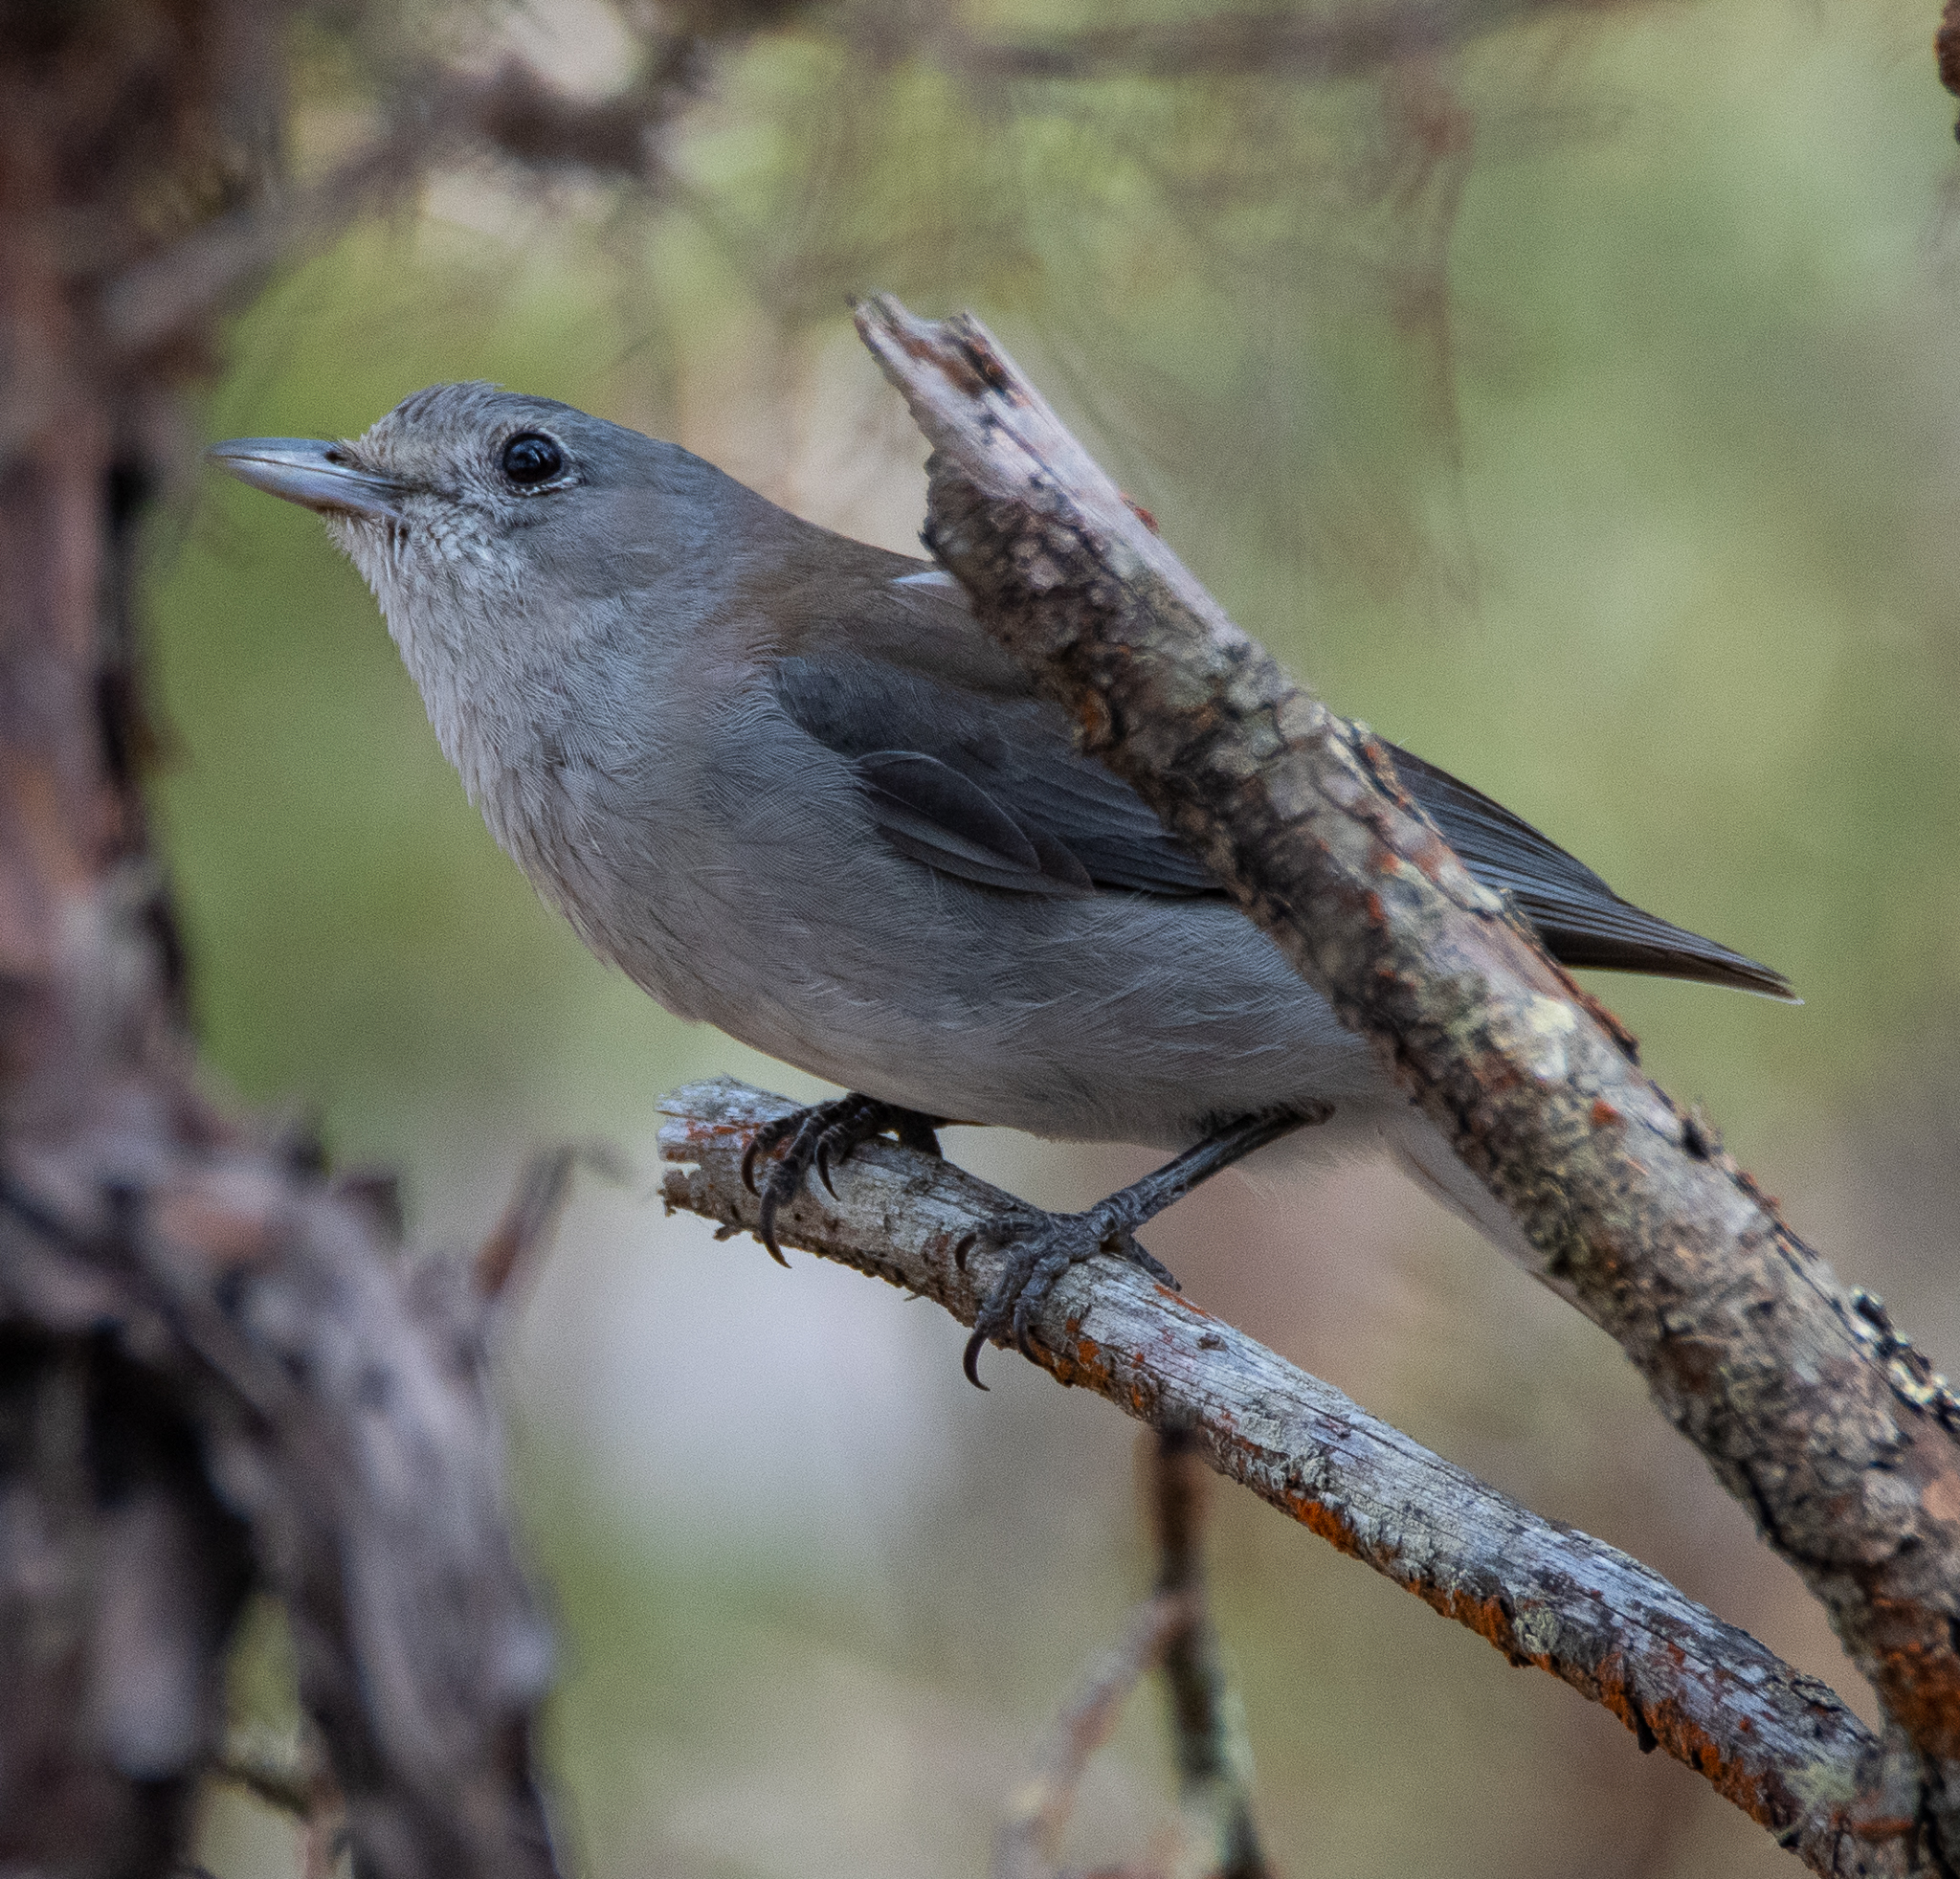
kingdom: Animalia
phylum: Chordata
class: Aves
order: Passeriformes
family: Pachycephalidae
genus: Colluricincla
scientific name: Colluricincla harmonica
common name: Grey shrikethrush
